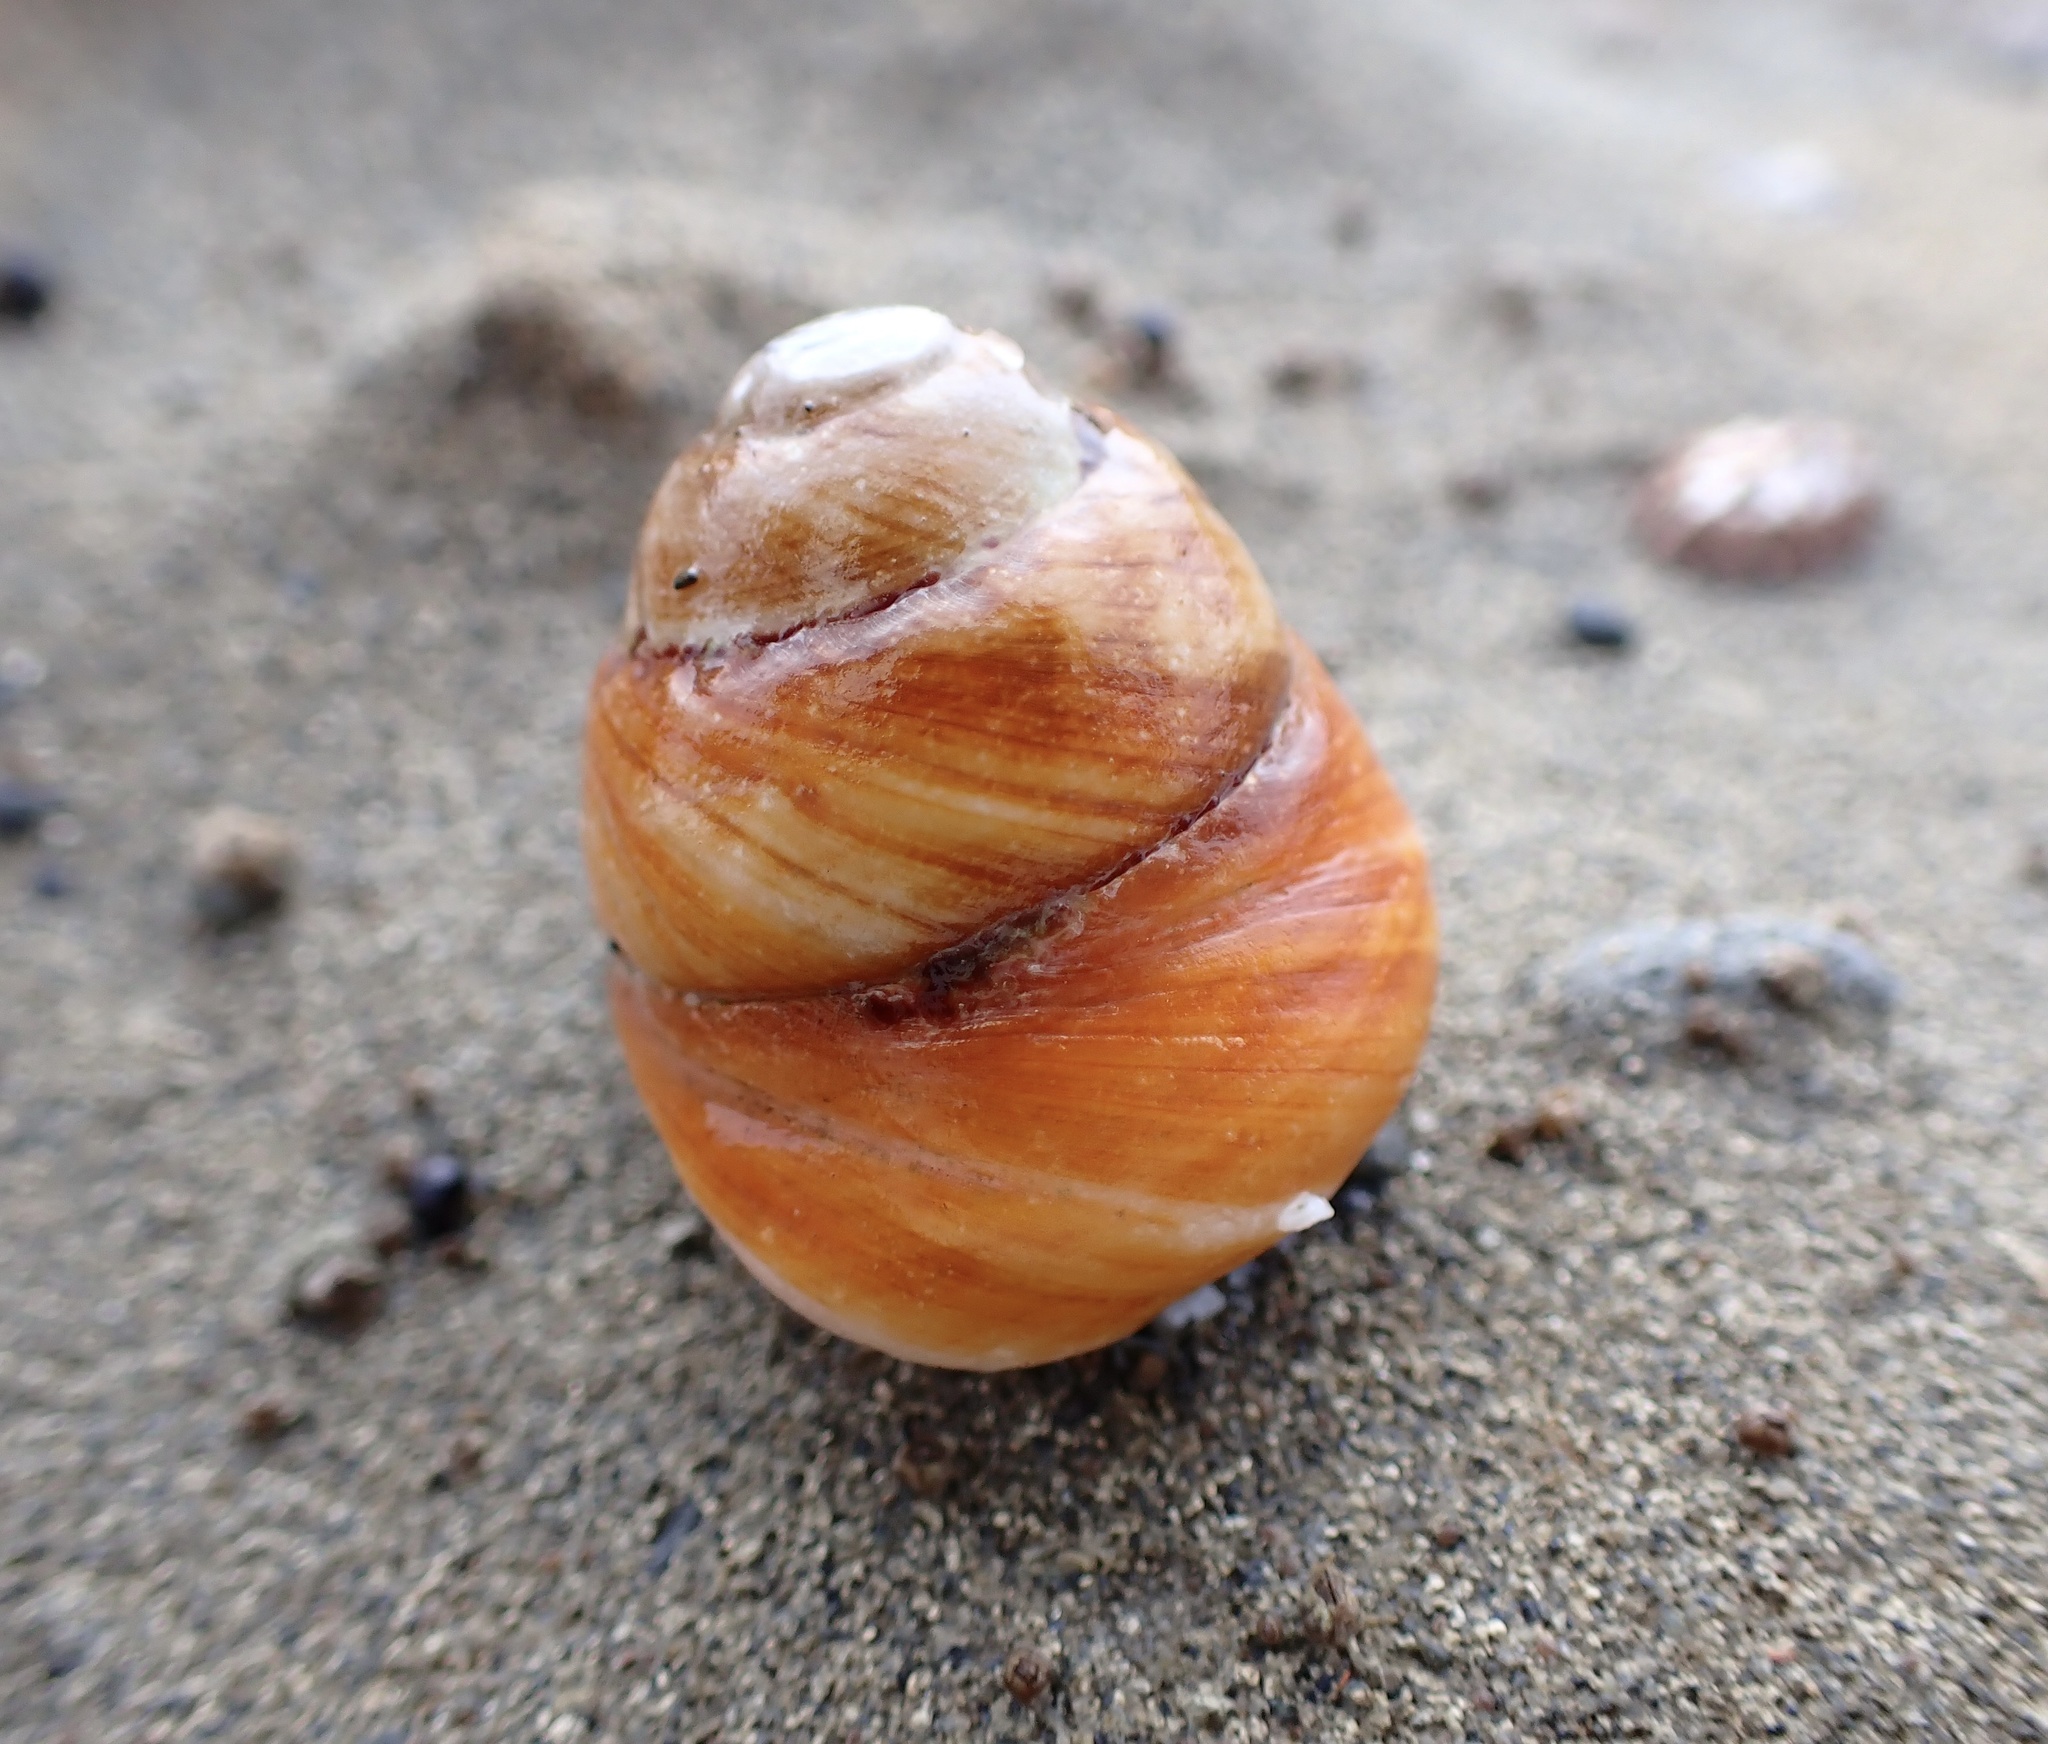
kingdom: Animalia
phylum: Mollusca
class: Gastropoda
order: Trochida
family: Tegulidae
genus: Tegula
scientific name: Tegula brunnea
